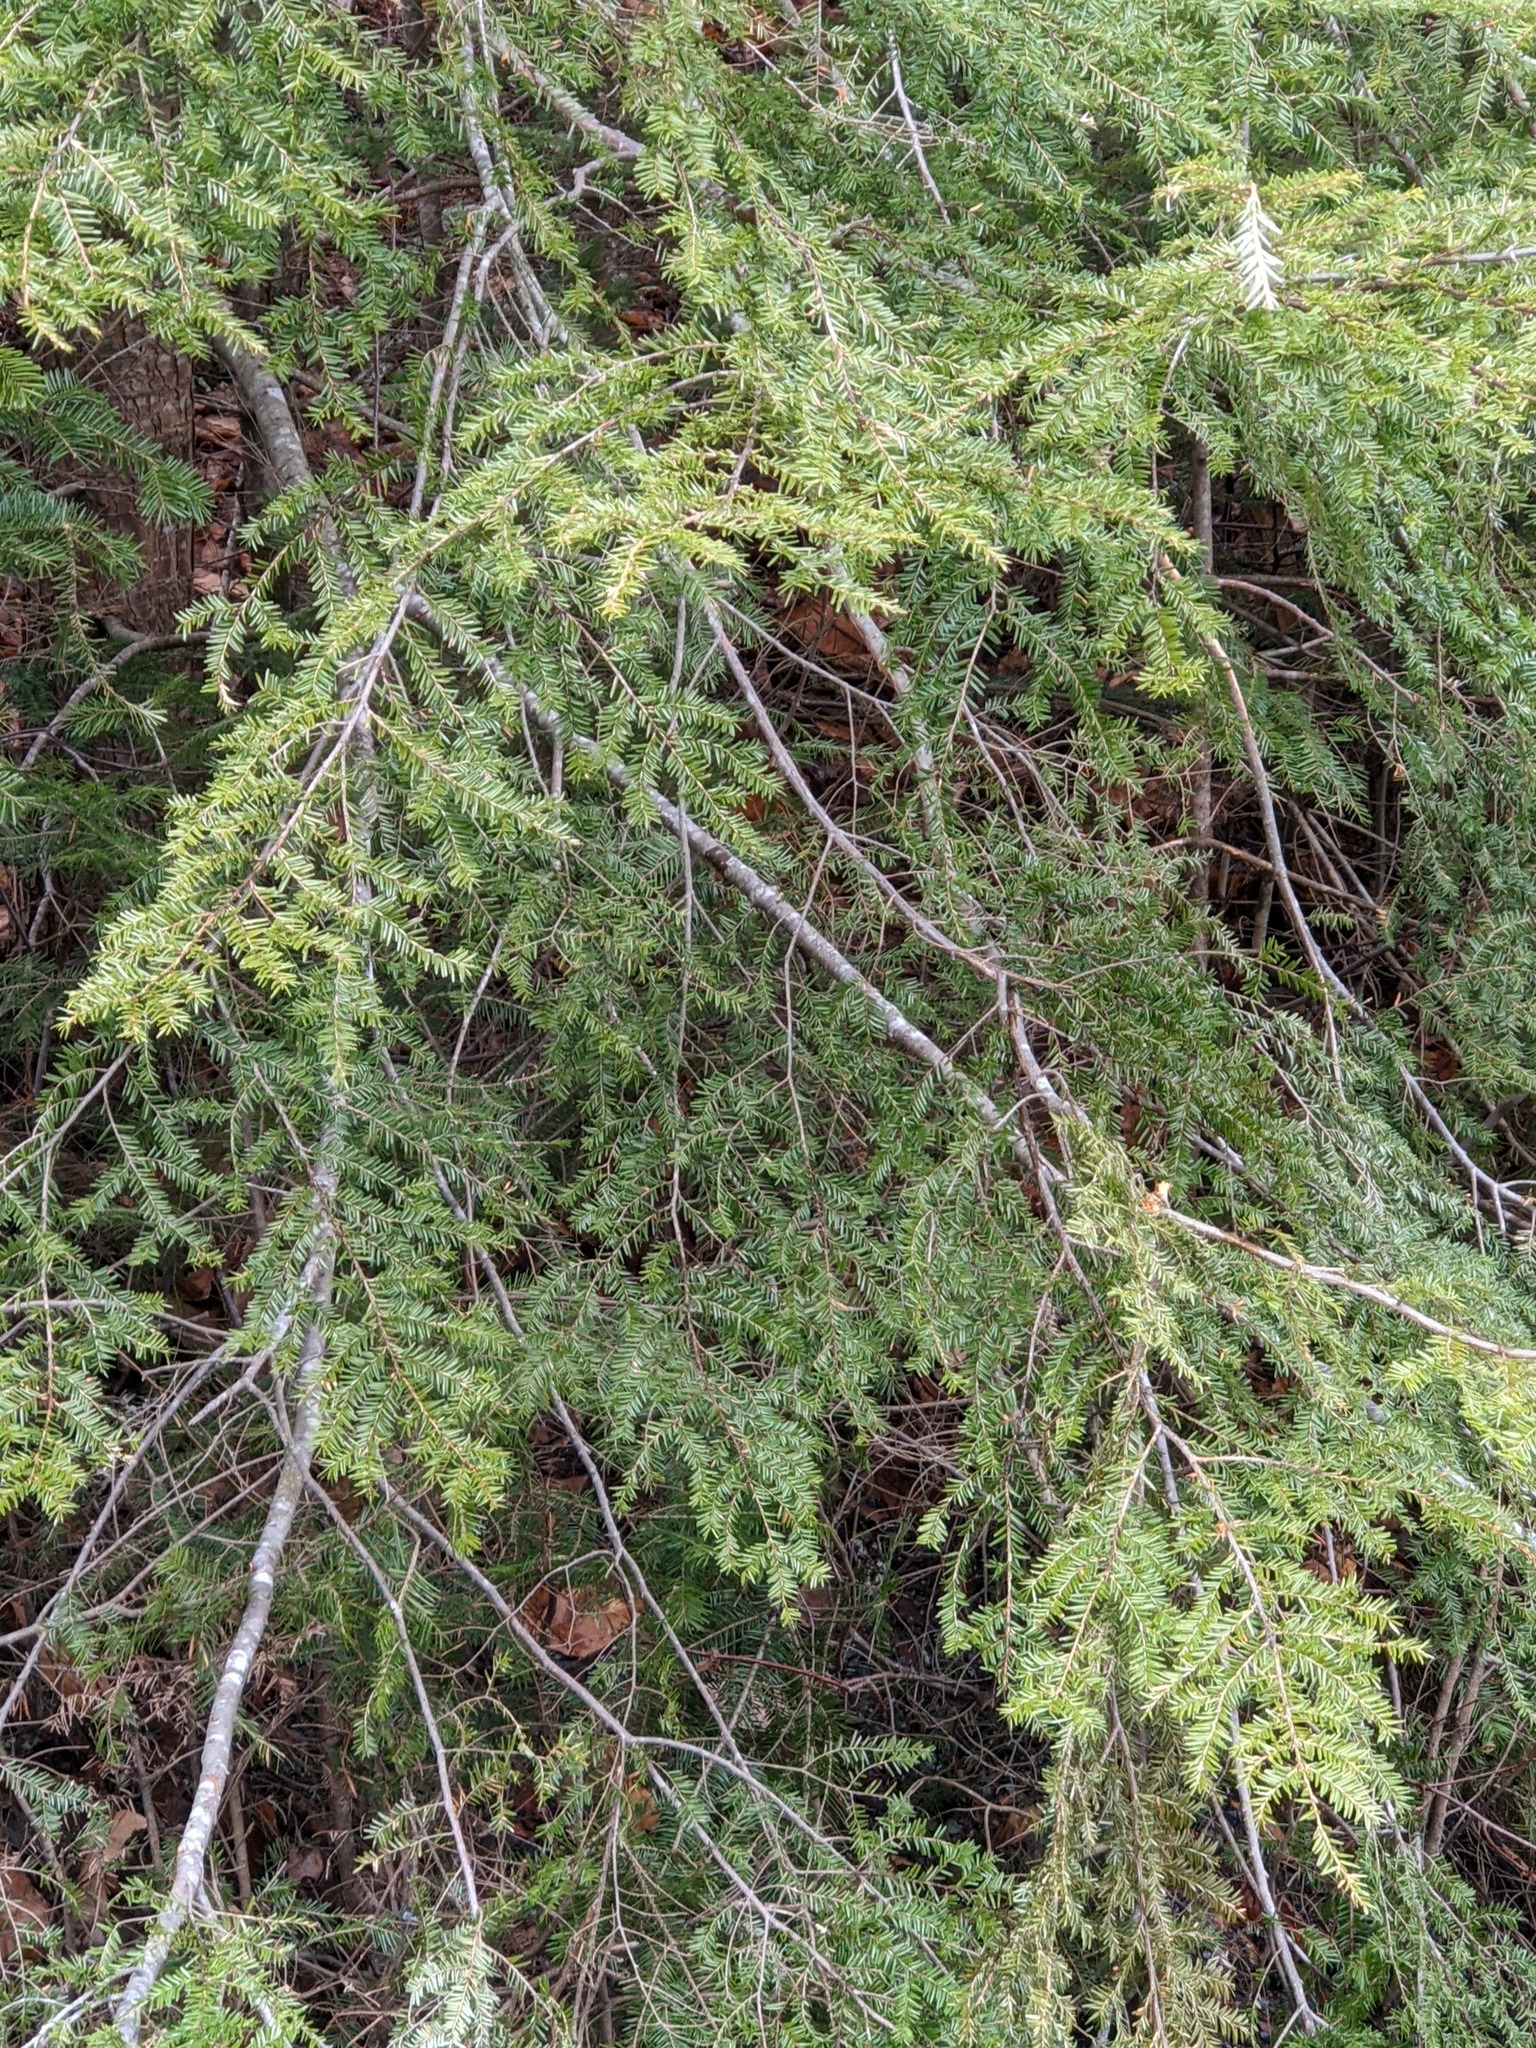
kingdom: Plantae
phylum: Tracheophyta
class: Pinopsida
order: Pinales
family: Pinaceae
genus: Tsuga
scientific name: Tsuga canadensis
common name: Eastern hemlock
